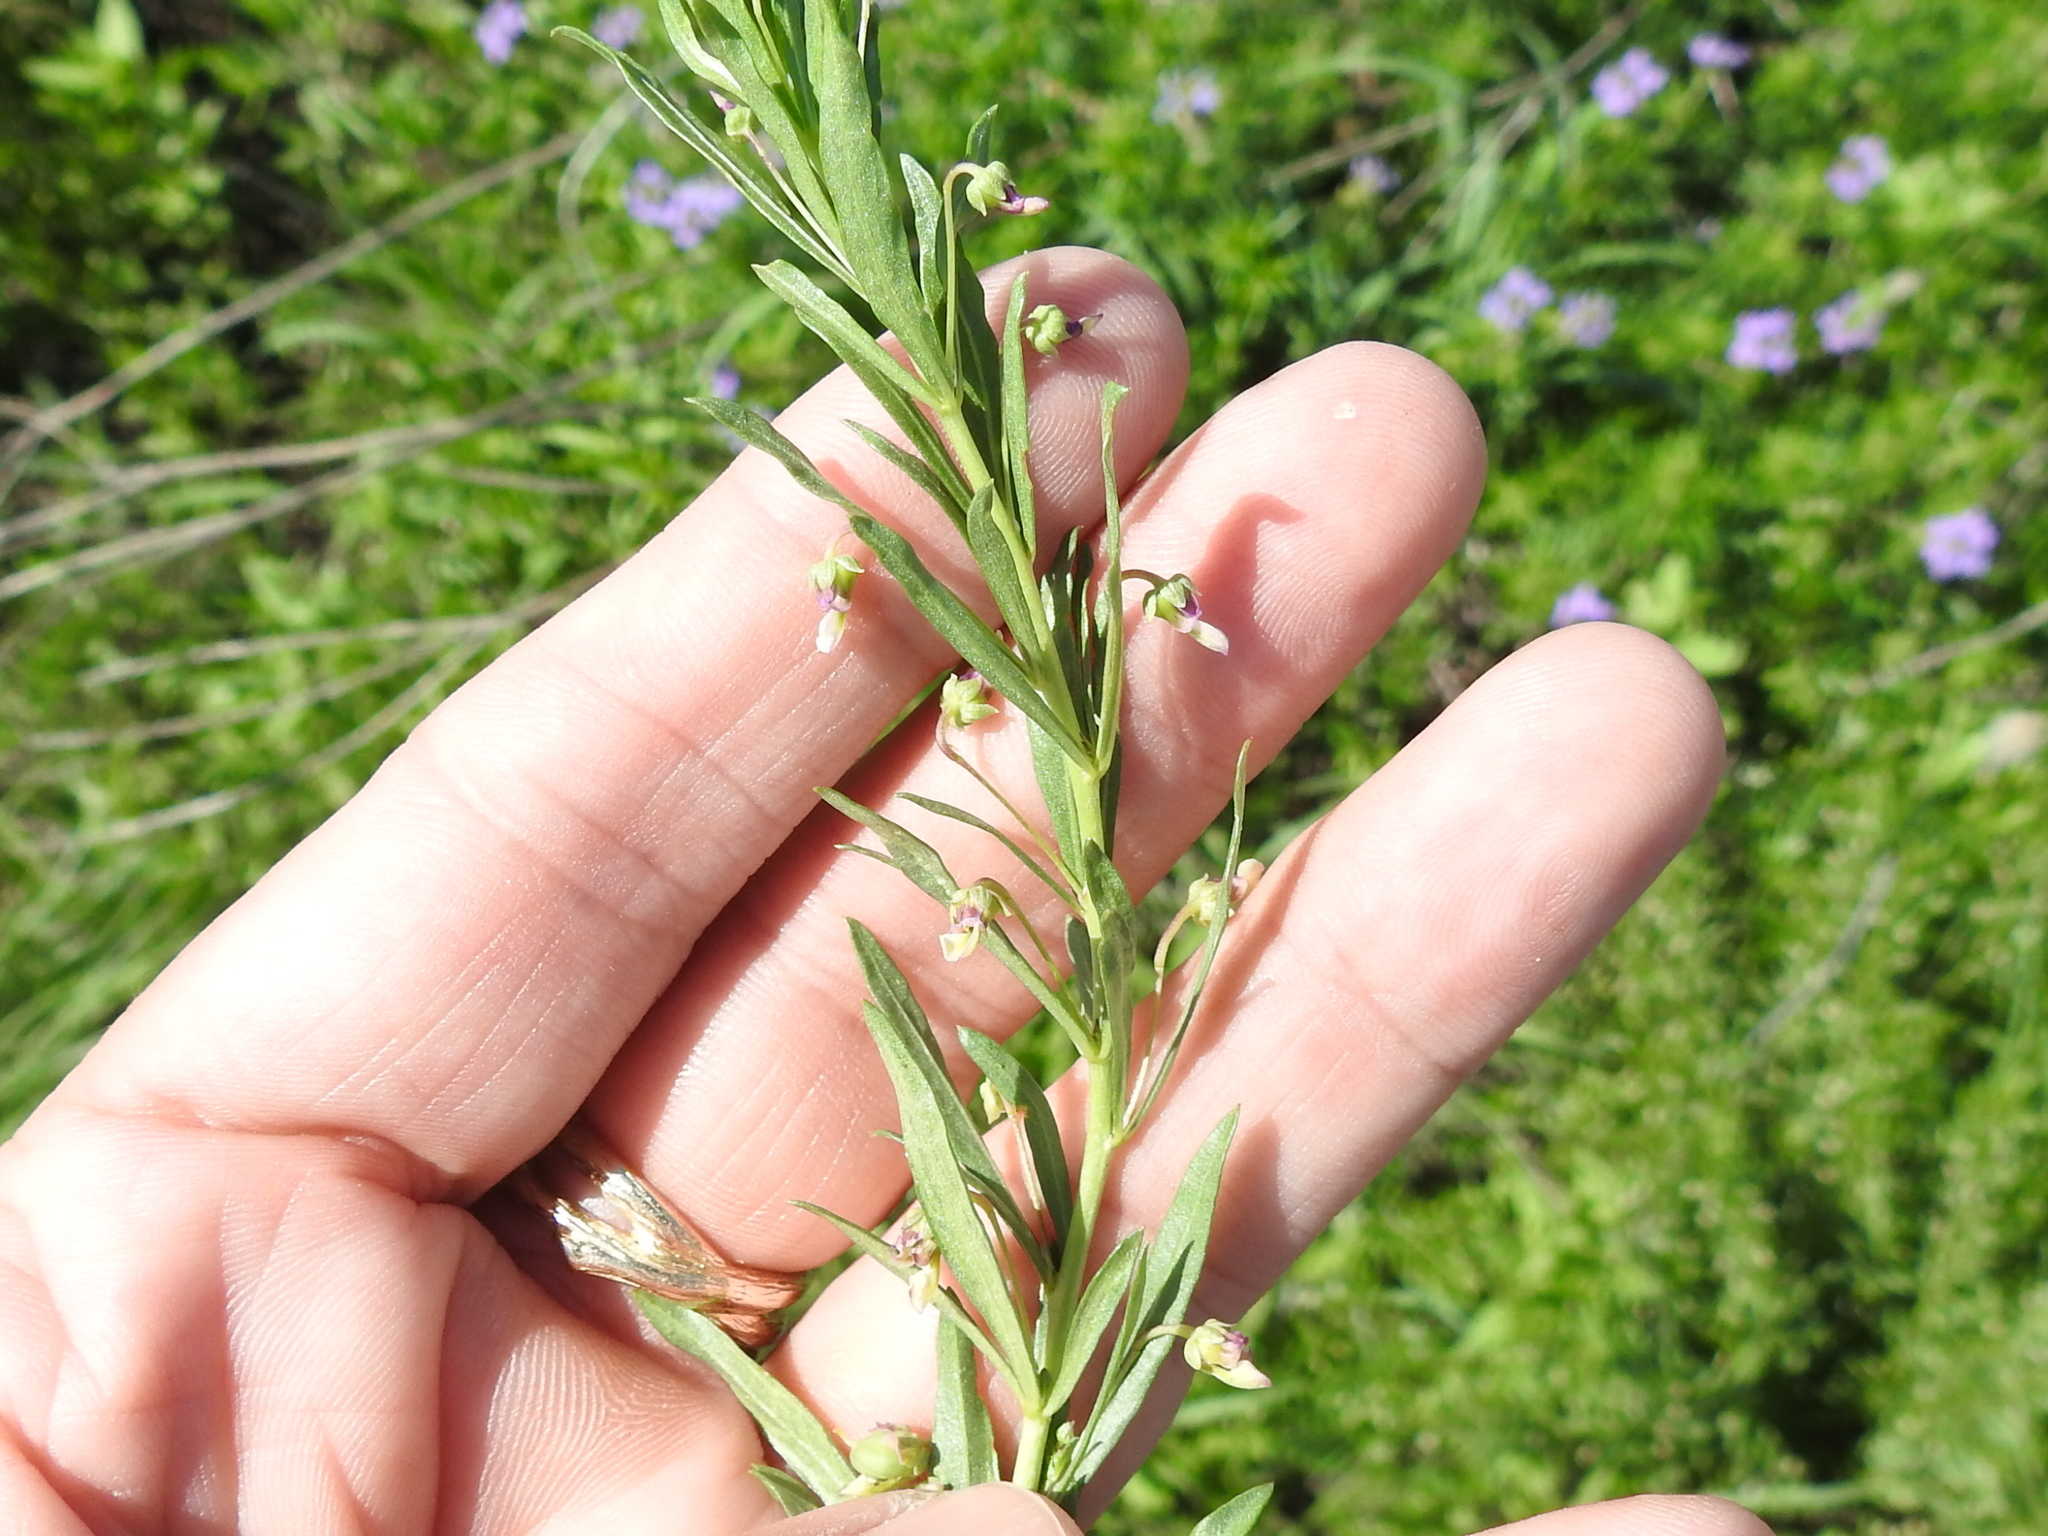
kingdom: Plantae
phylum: Tracheophyta
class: Magnoliopsida
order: Malpighiales
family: Violaceae
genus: Pombalia
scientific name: Pombalia verticillata
